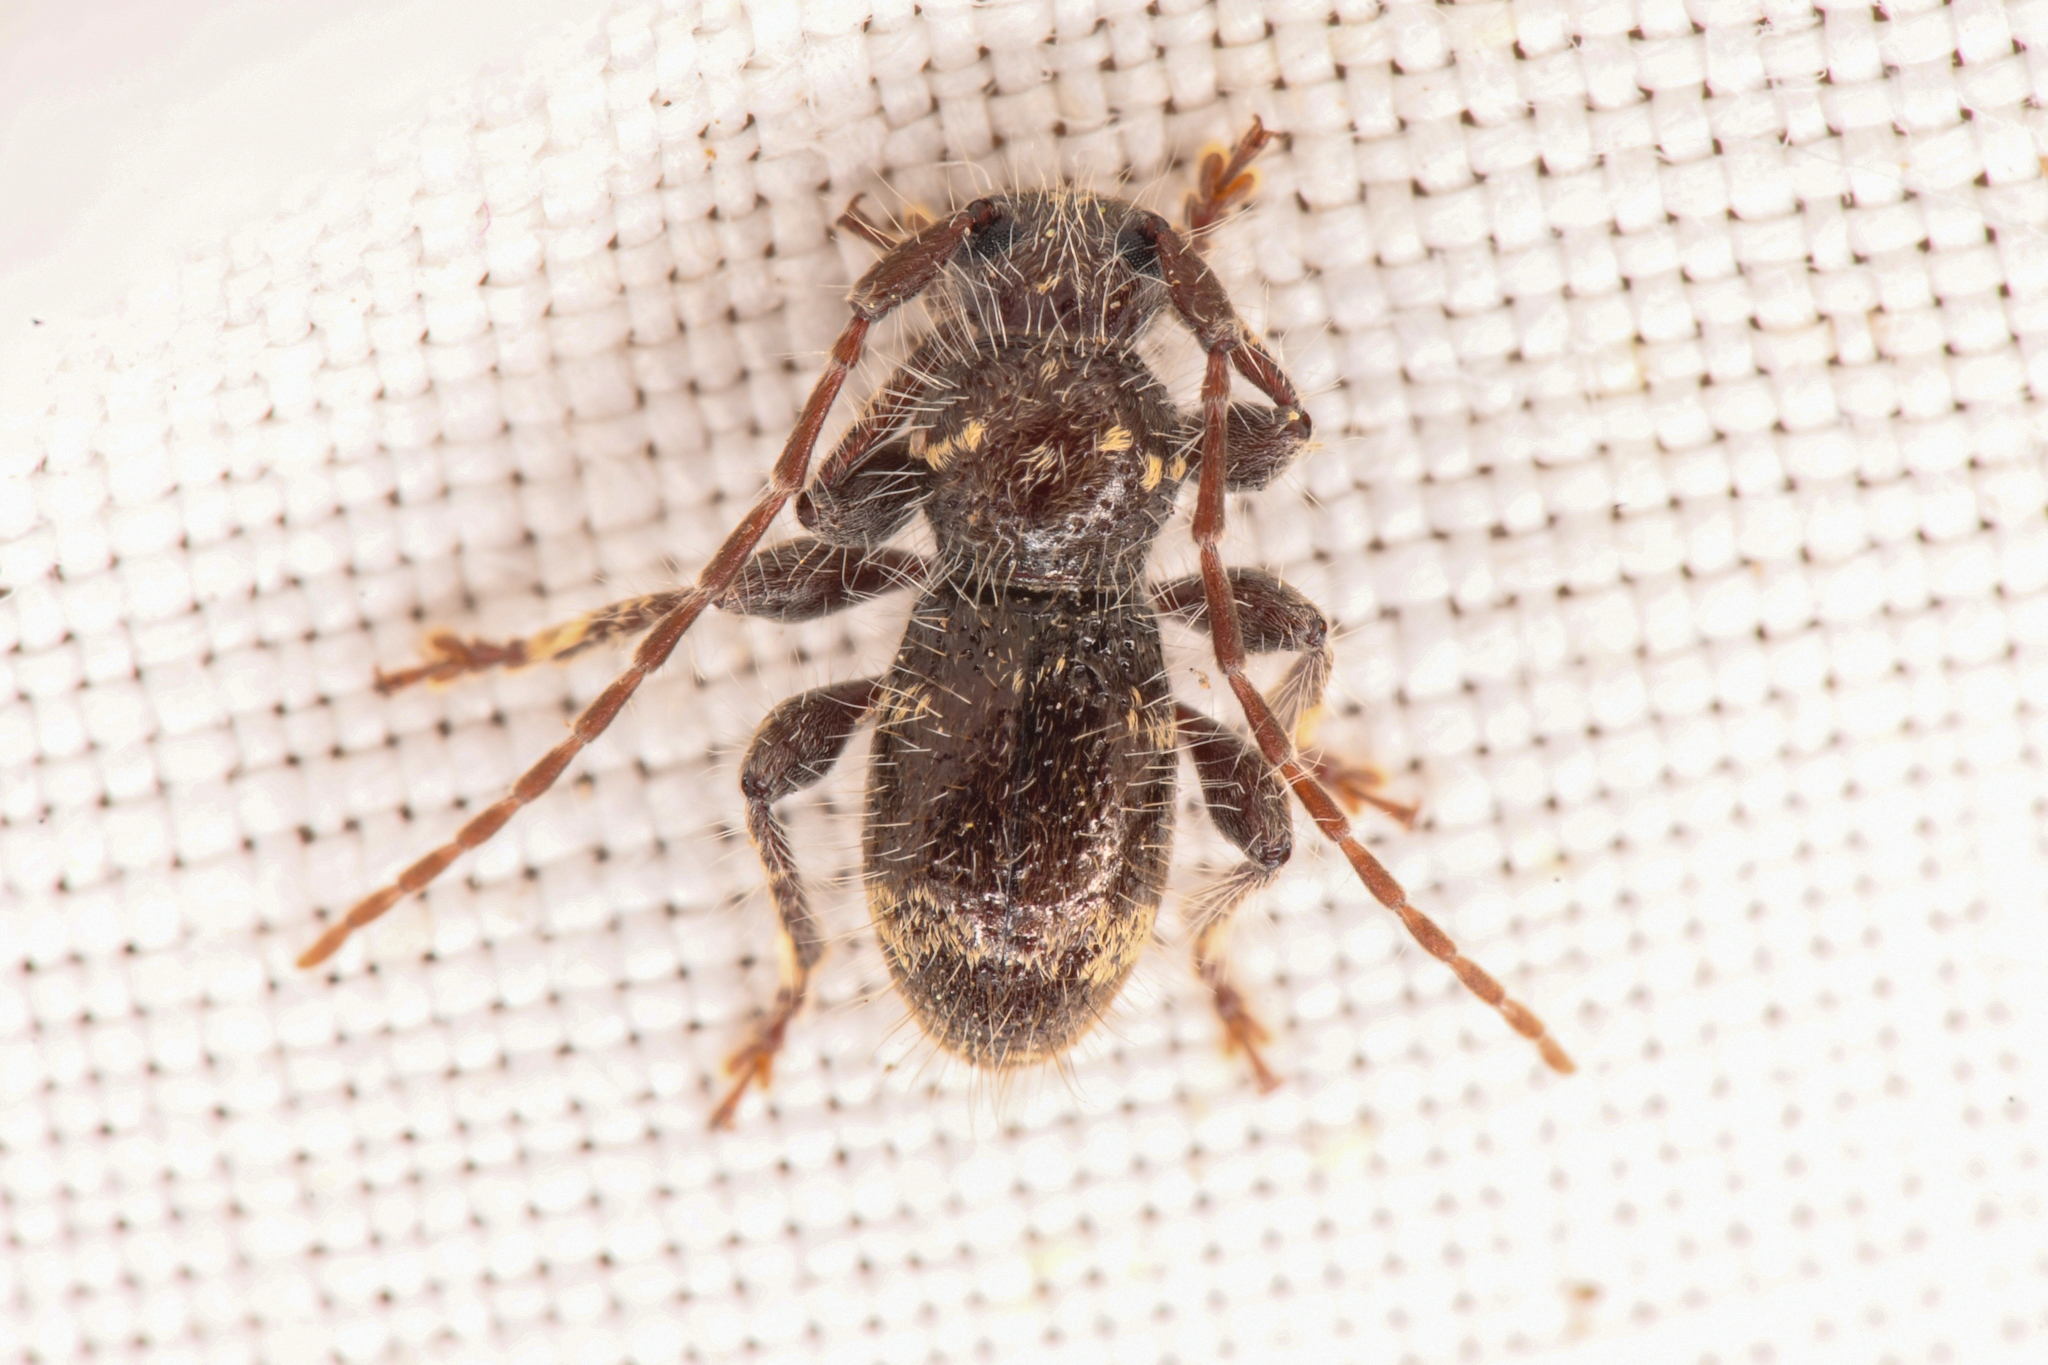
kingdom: Animalia
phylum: Arthropoda
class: Insecta
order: Coleoptera
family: Cerambycidae
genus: Ipochus
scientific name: Ipochus fasciatus
